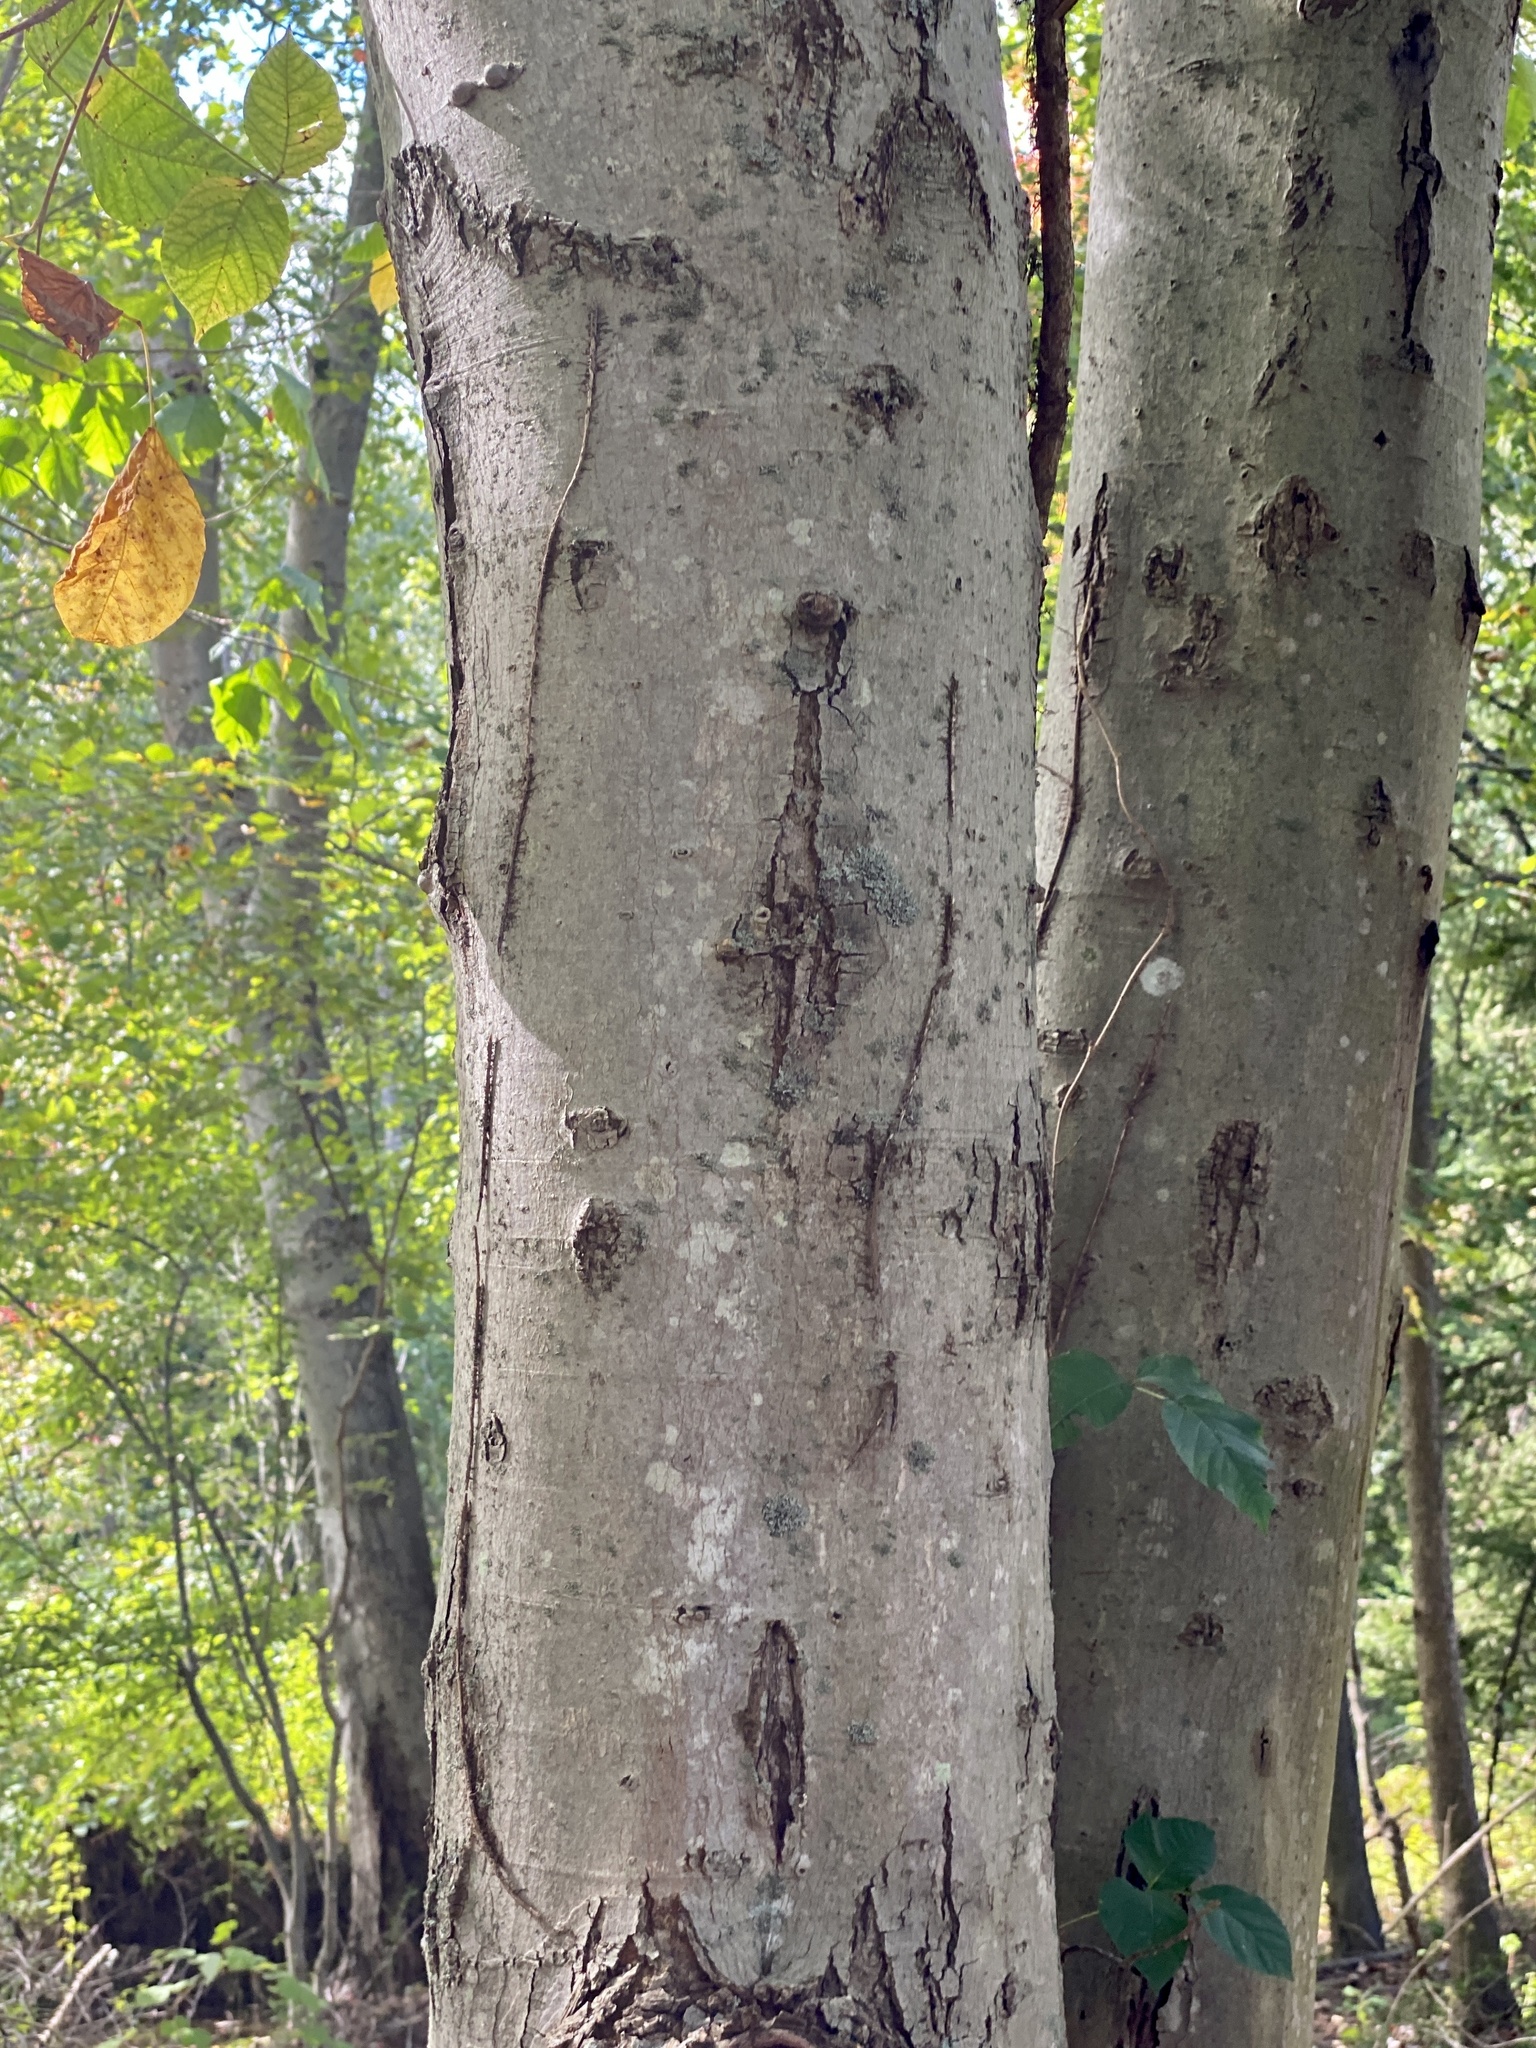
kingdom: Plantae
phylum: Tracheophyta
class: Magnoliopsida
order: Fagales
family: Fagaceae
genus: Fagus
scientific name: Fagus grandifolia
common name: American beech
